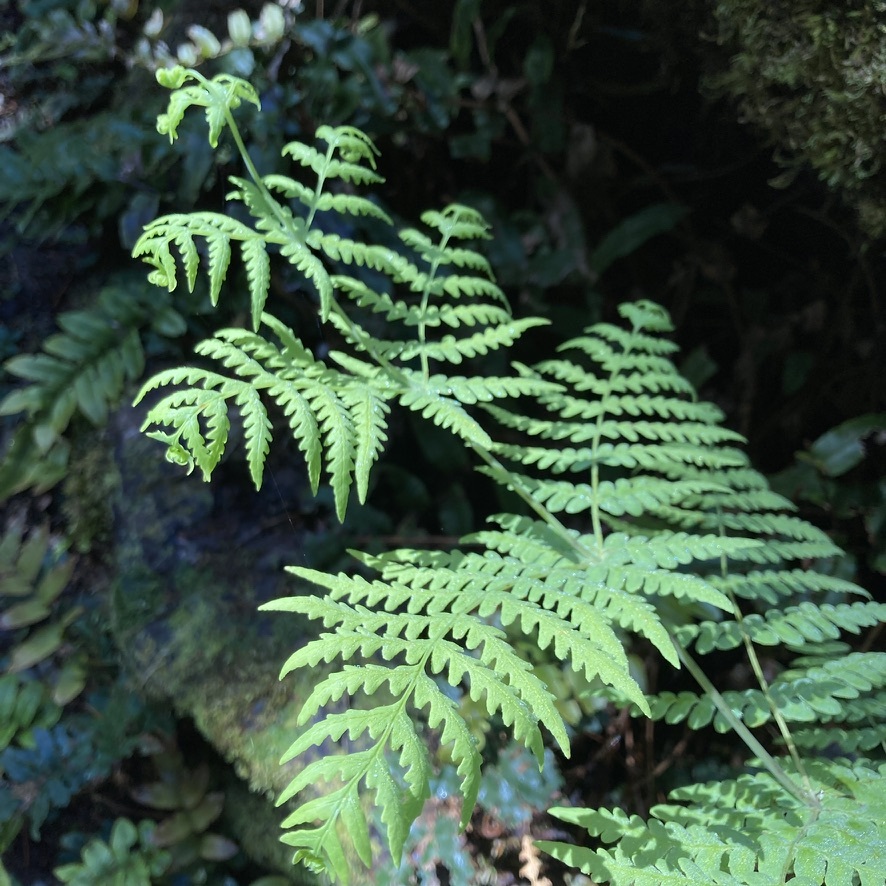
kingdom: Plantae
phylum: Tracheophyta
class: Polypodiopsida
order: Polypodiales
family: Dennstaedtiaceae
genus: Histiopteris
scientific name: Histiopteris incisa
